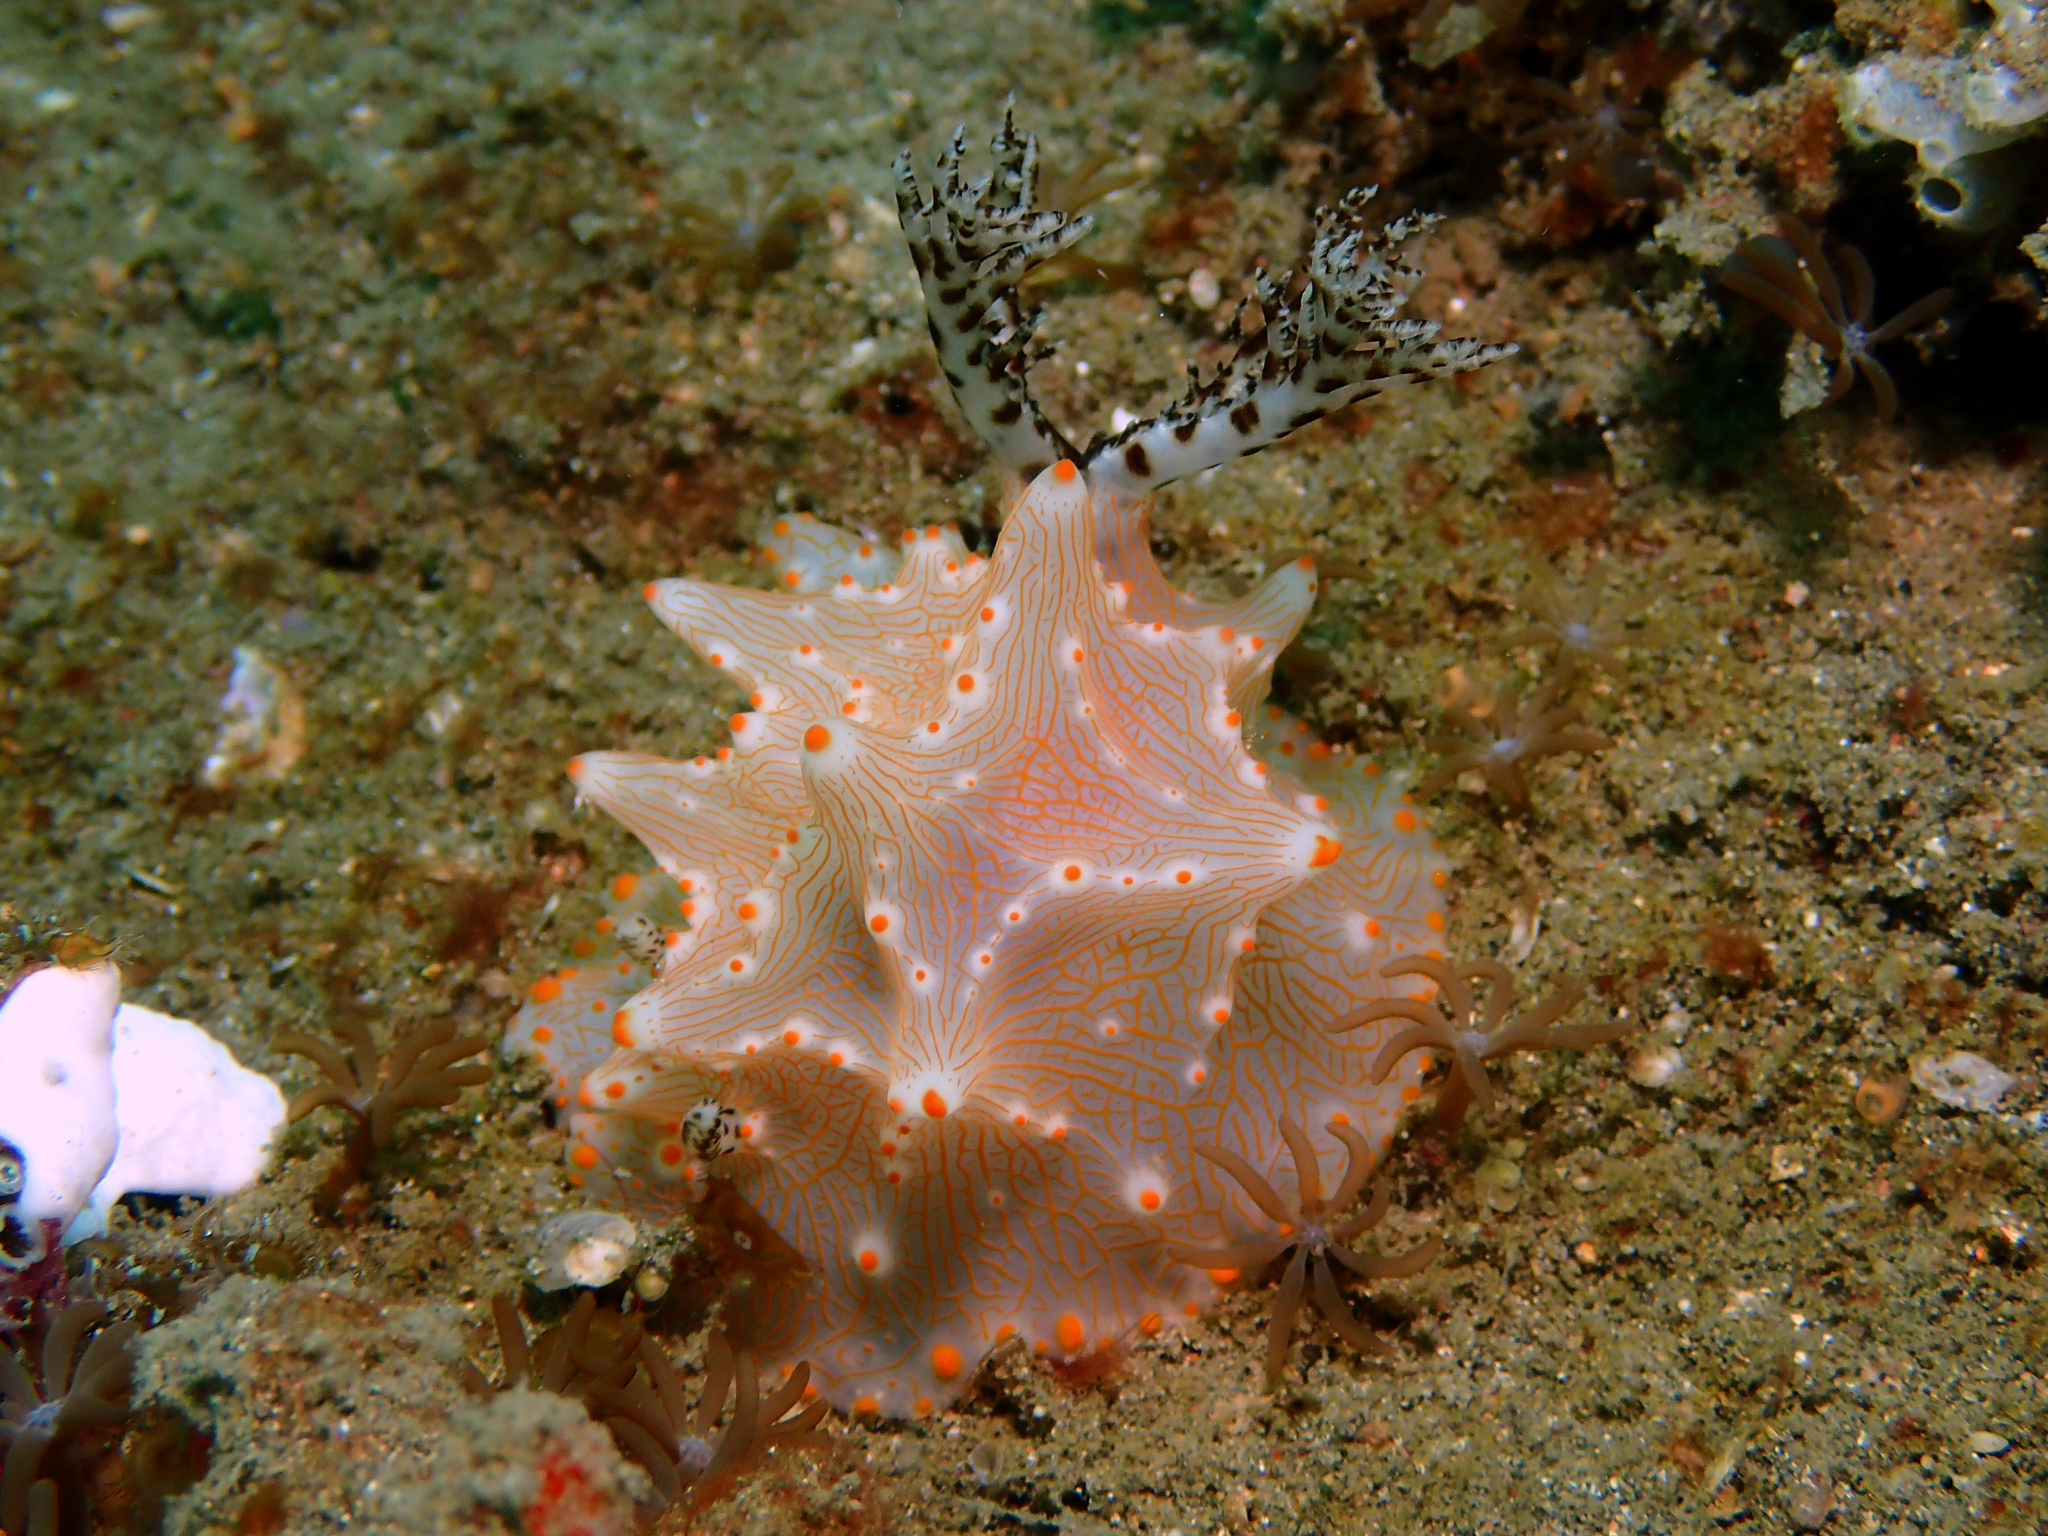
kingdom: Animalia
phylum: Mollusca
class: Gastropoda
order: Nudibranchia
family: Discodorididae
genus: Halgerda
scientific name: Halgerda batangas
